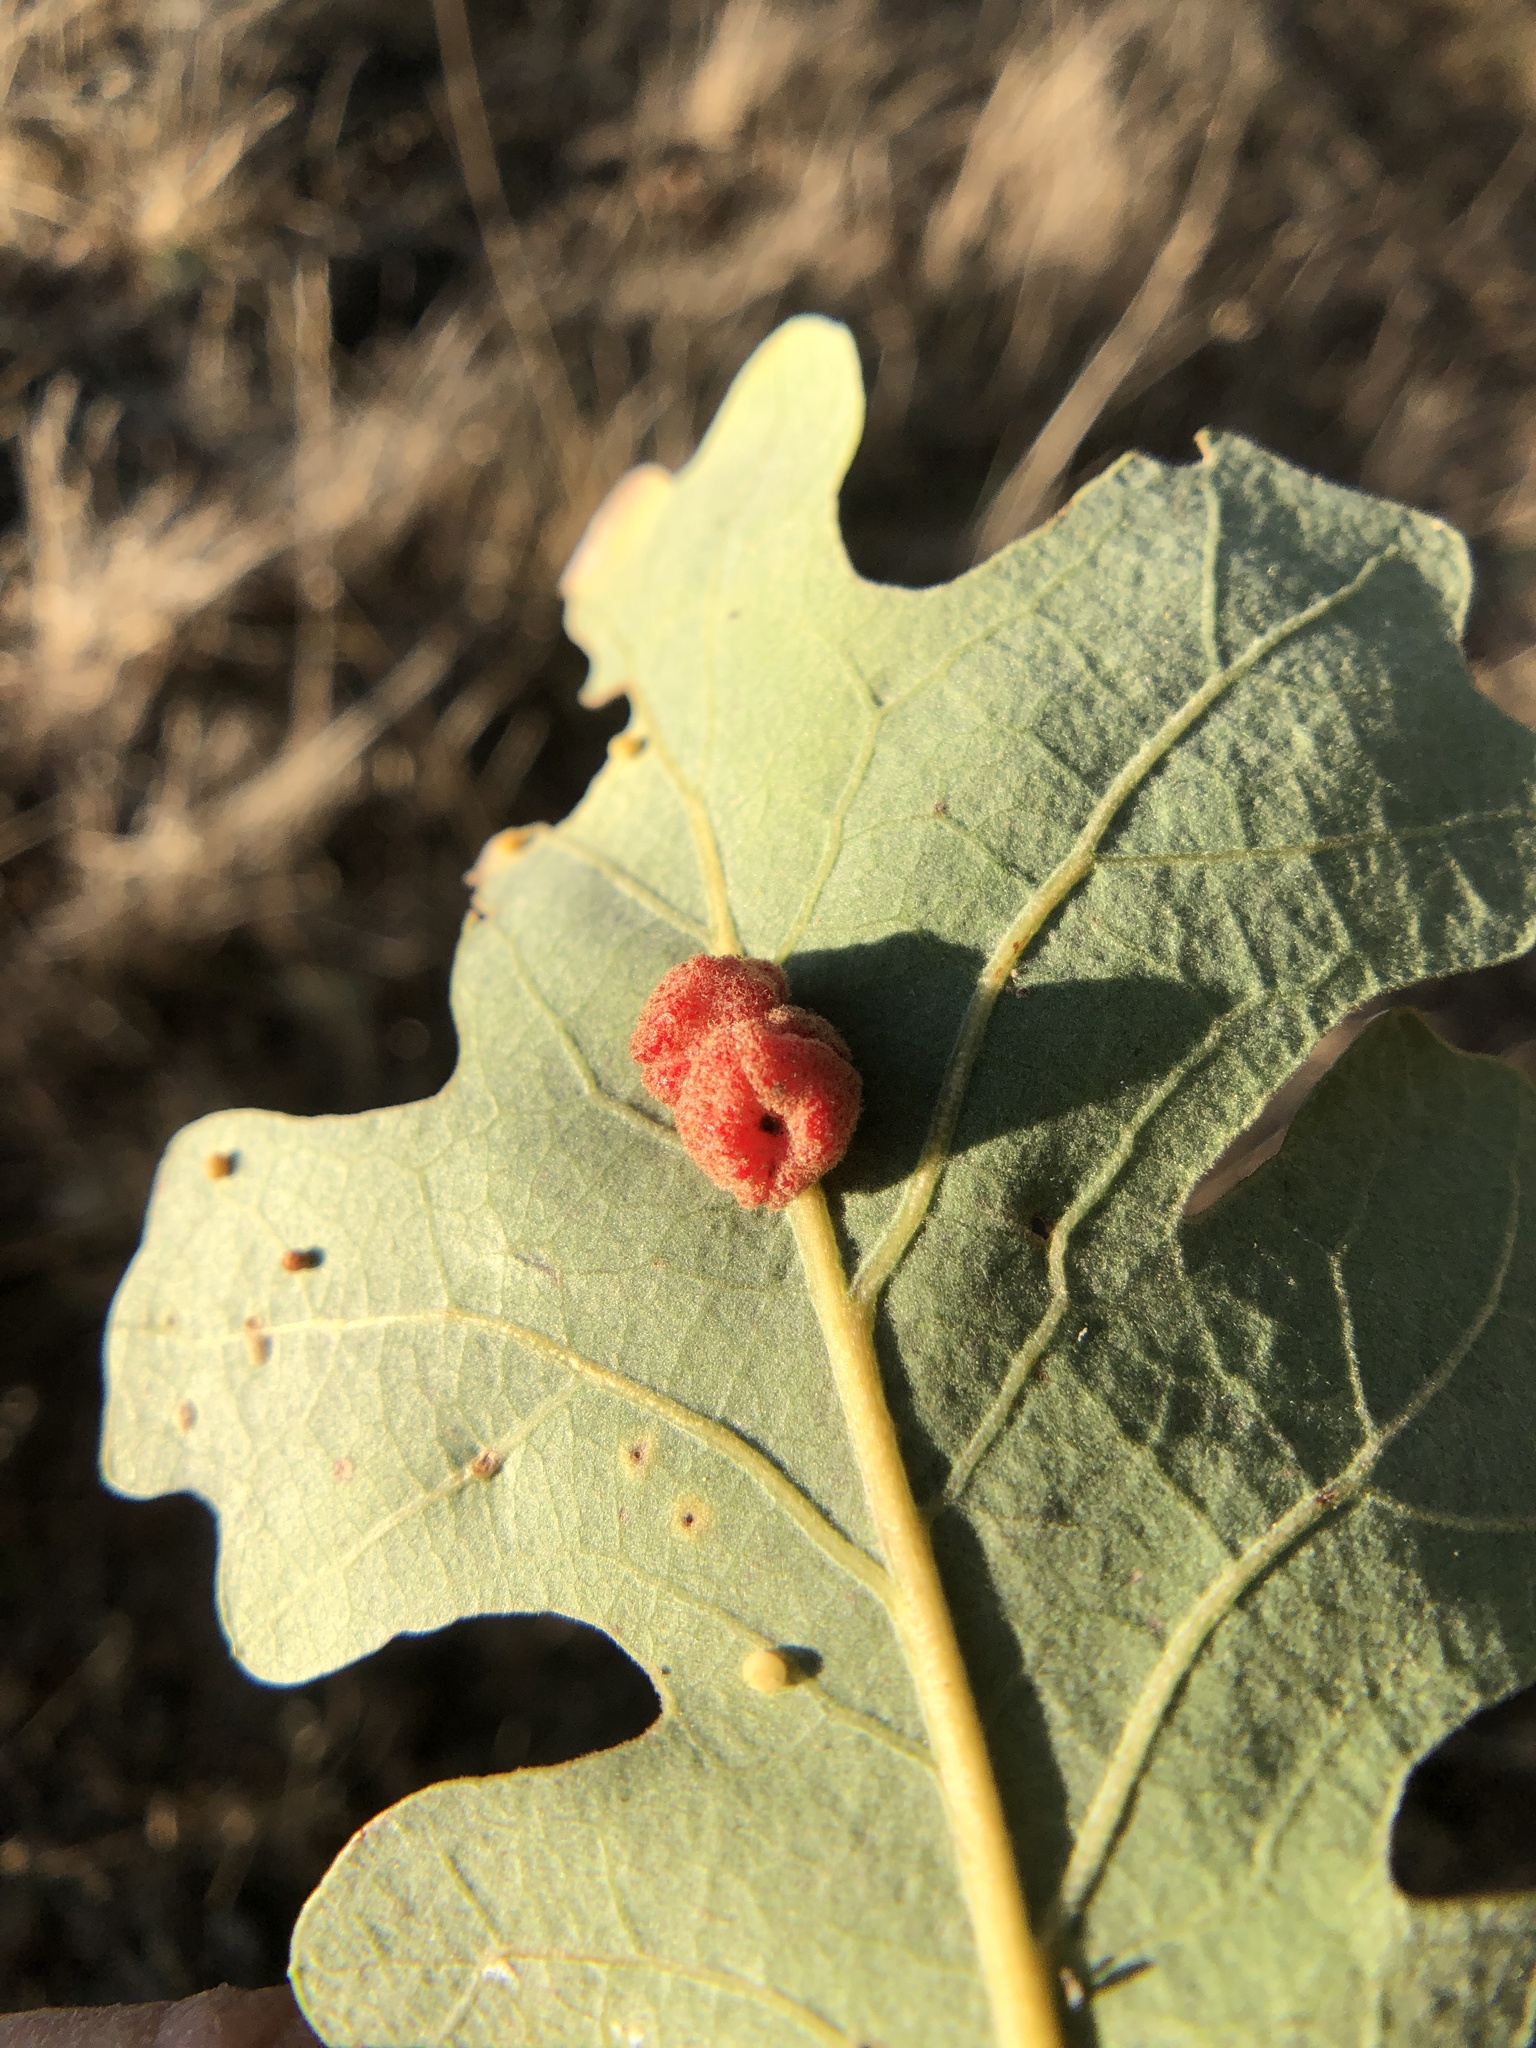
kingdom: Animalia
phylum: Arthropoda
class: Insecta
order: Hymenoptera
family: Cynipidae
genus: Andricus
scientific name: Andricus
